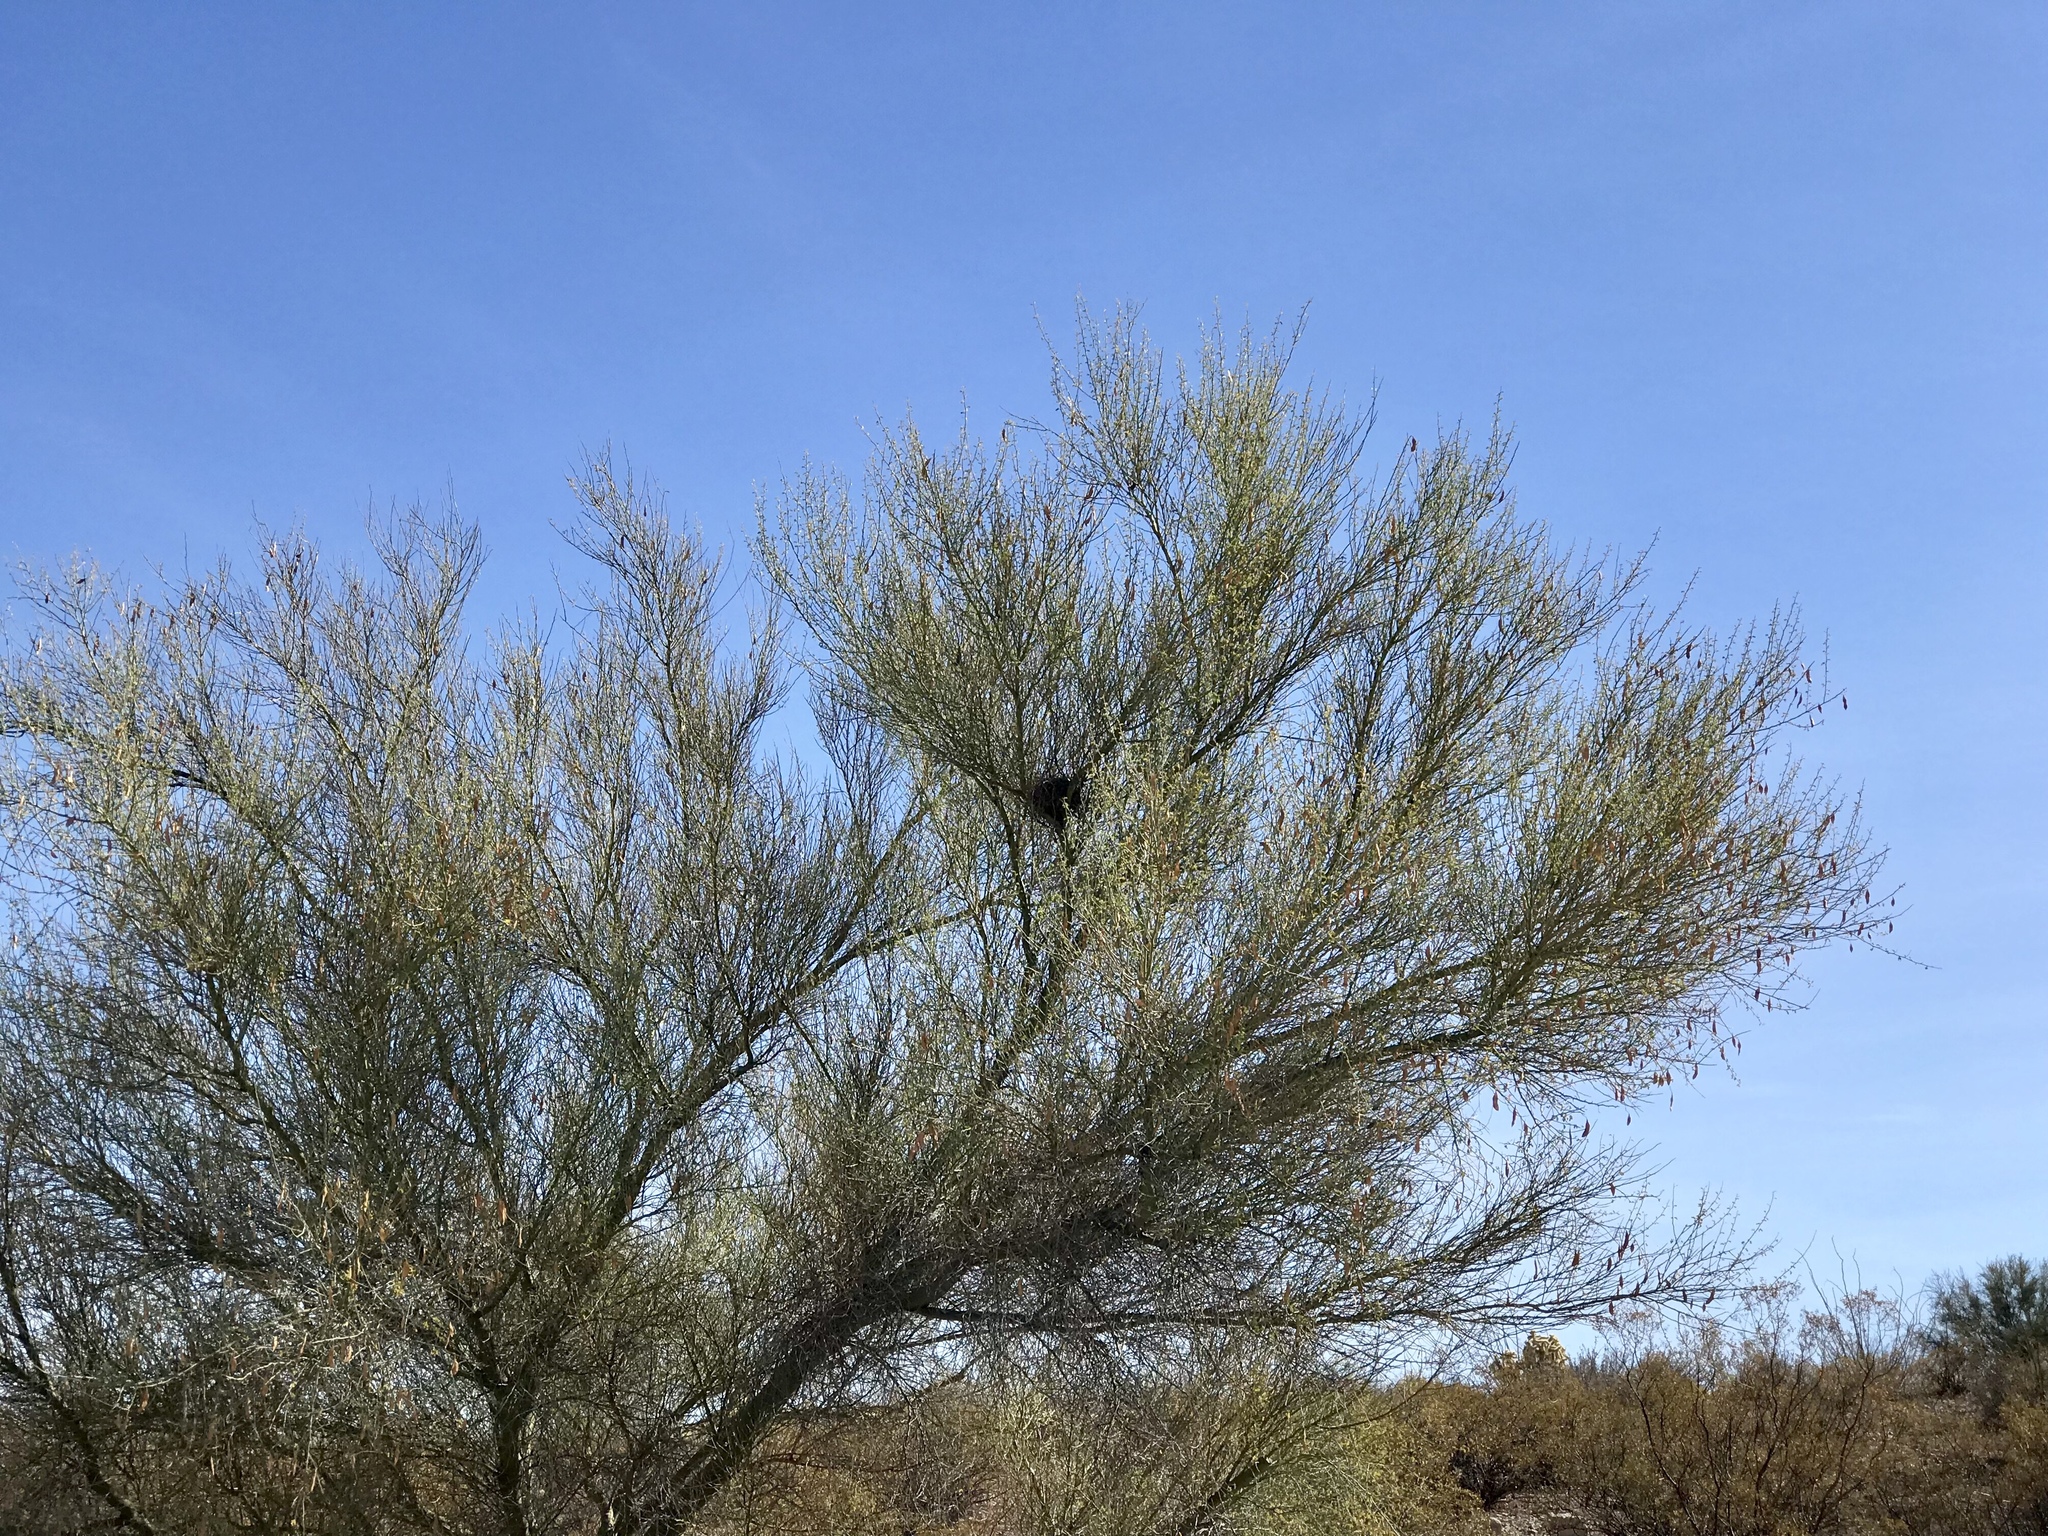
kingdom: Plantae
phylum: Tracheophyta
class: Magnoliopsida
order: Fabales
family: Fabaceae
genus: Parkinsonia
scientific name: Parkinsonia florida
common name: Blue paloverde
